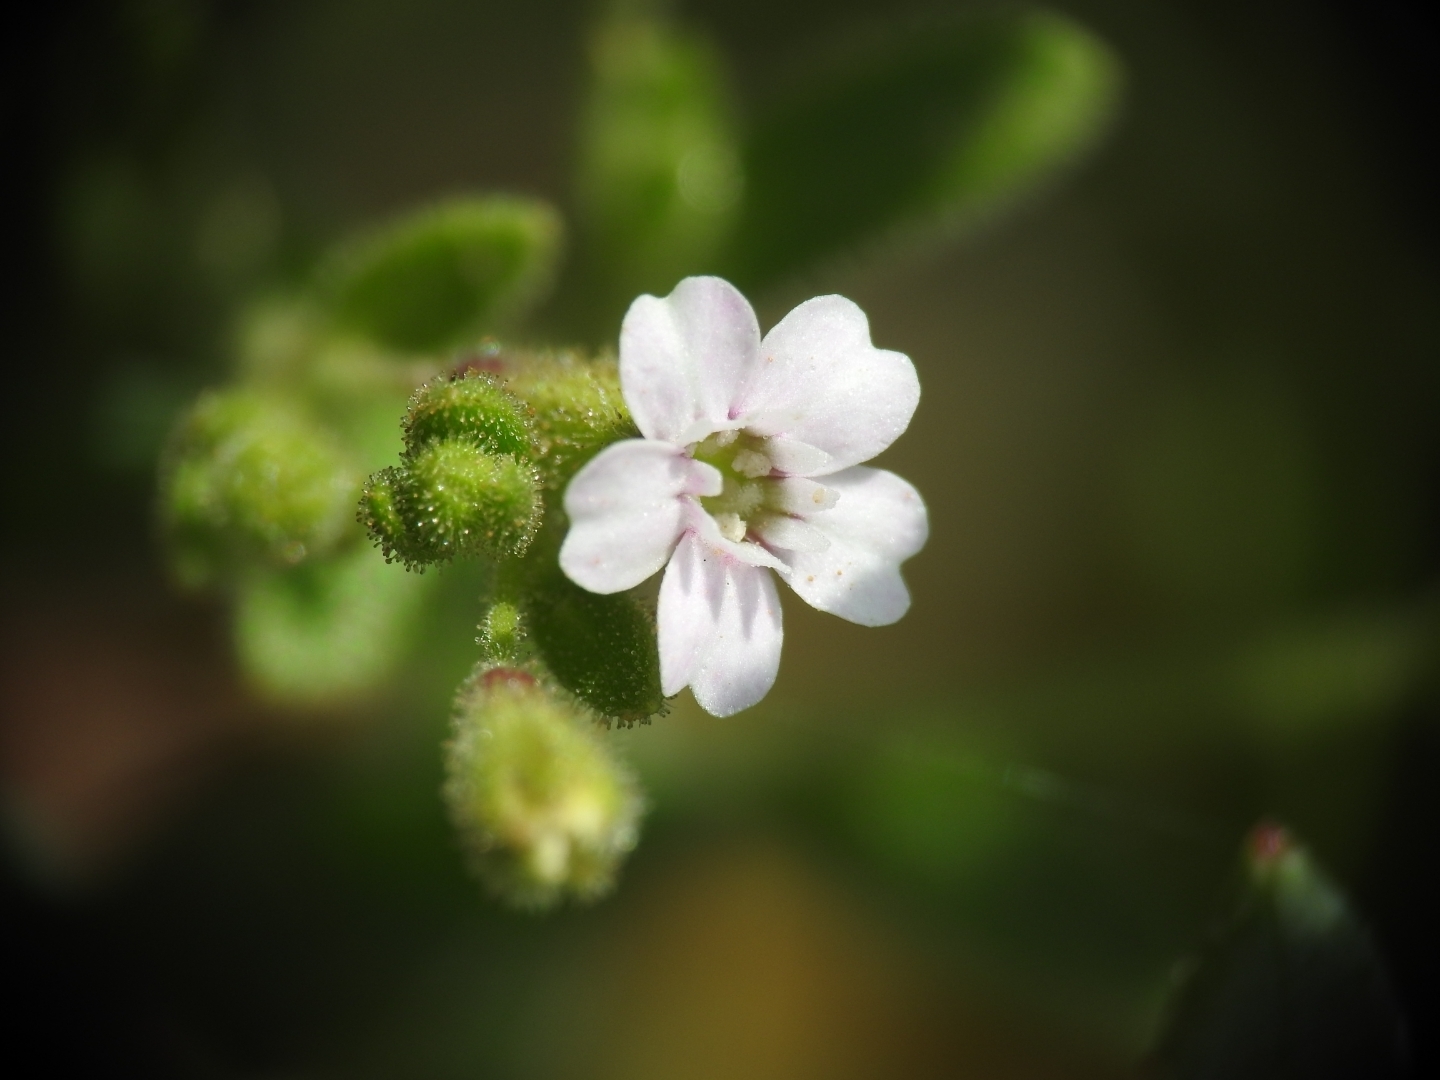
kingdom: Plantae
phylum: Tracheophyta
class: Magnoliopsida
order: Caryophyllales
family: Caryophyllaceae
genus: Silene
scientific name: Silene sedoides
